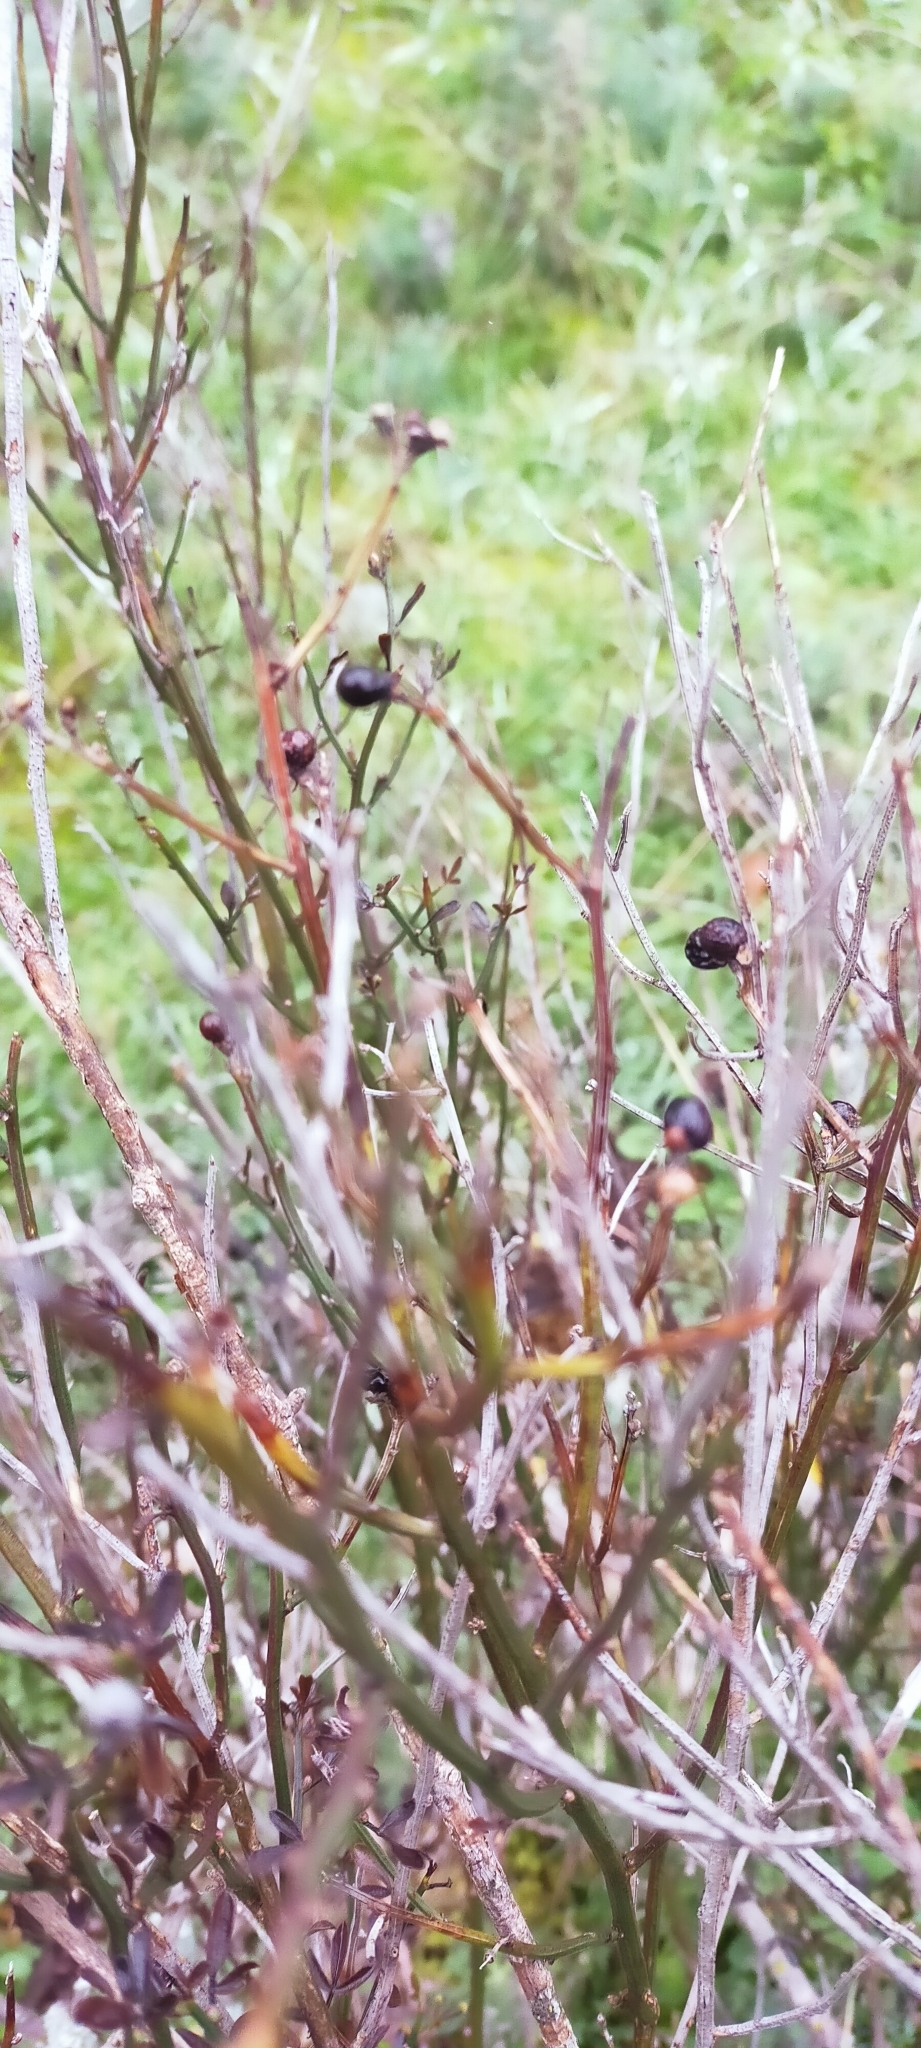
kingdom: Plantae
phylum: Tracheophyta
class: Magnoliopsida
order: Lamiales
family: Oleaceae
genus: Chrysojasminum
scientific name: Chrysojasminum fruticans
